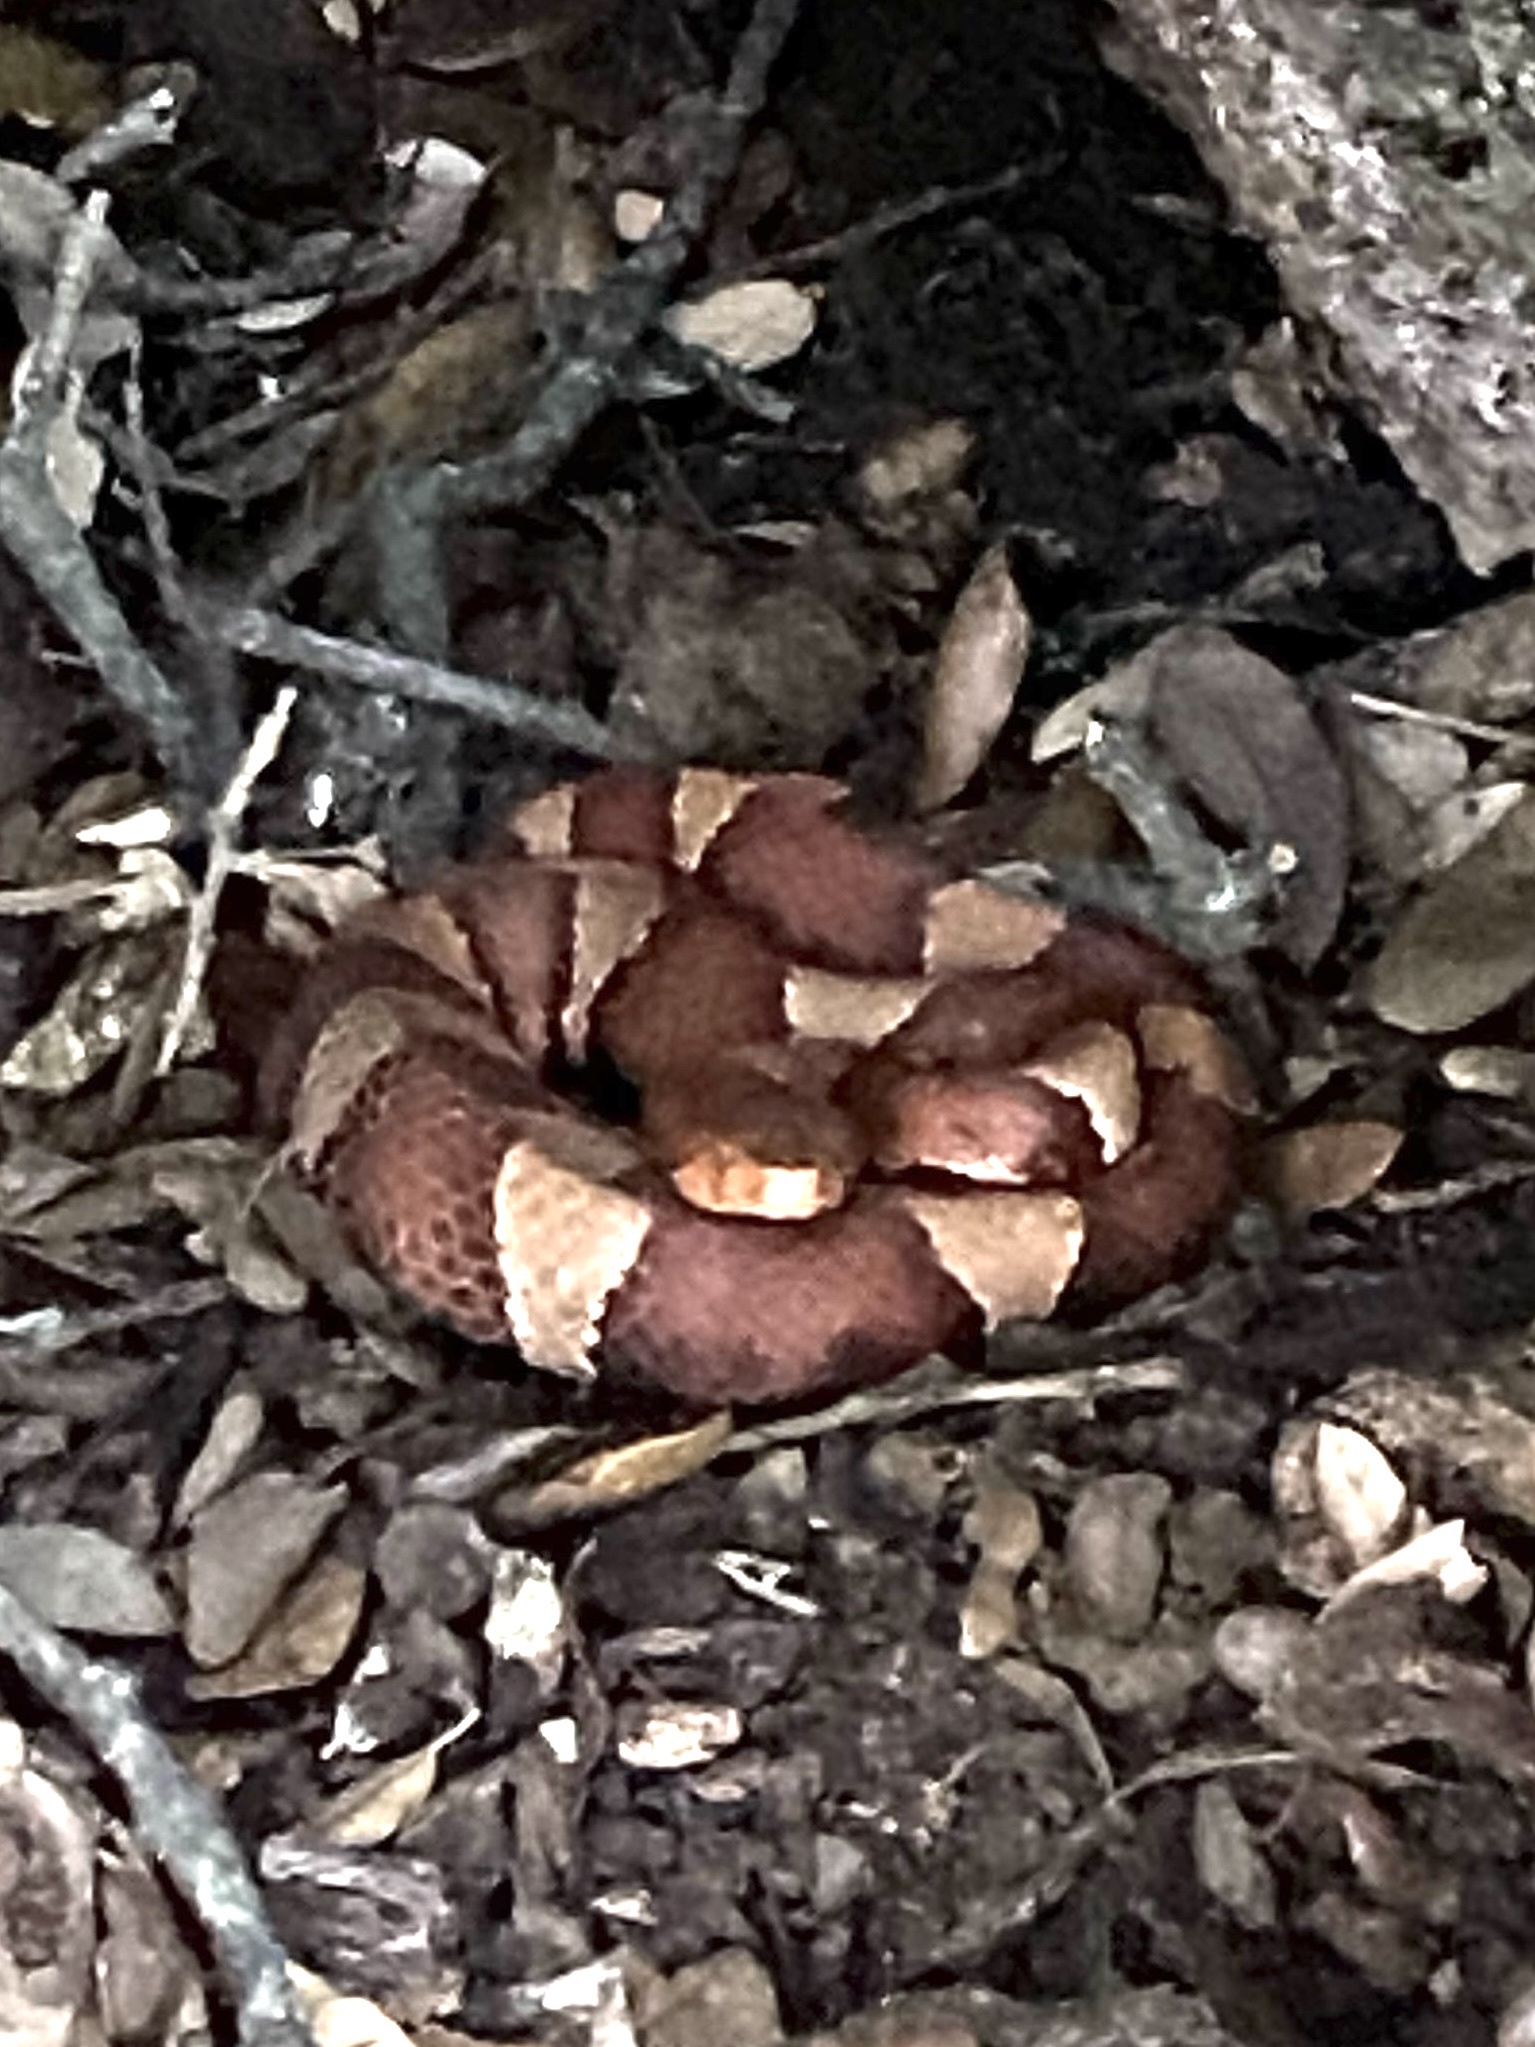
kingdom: Animalia
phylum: Chordata
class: Squamata
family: Viperidae
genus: Agkistrodon
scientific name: Agkistrodon laticinctus
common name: Broad-banded copperhead
